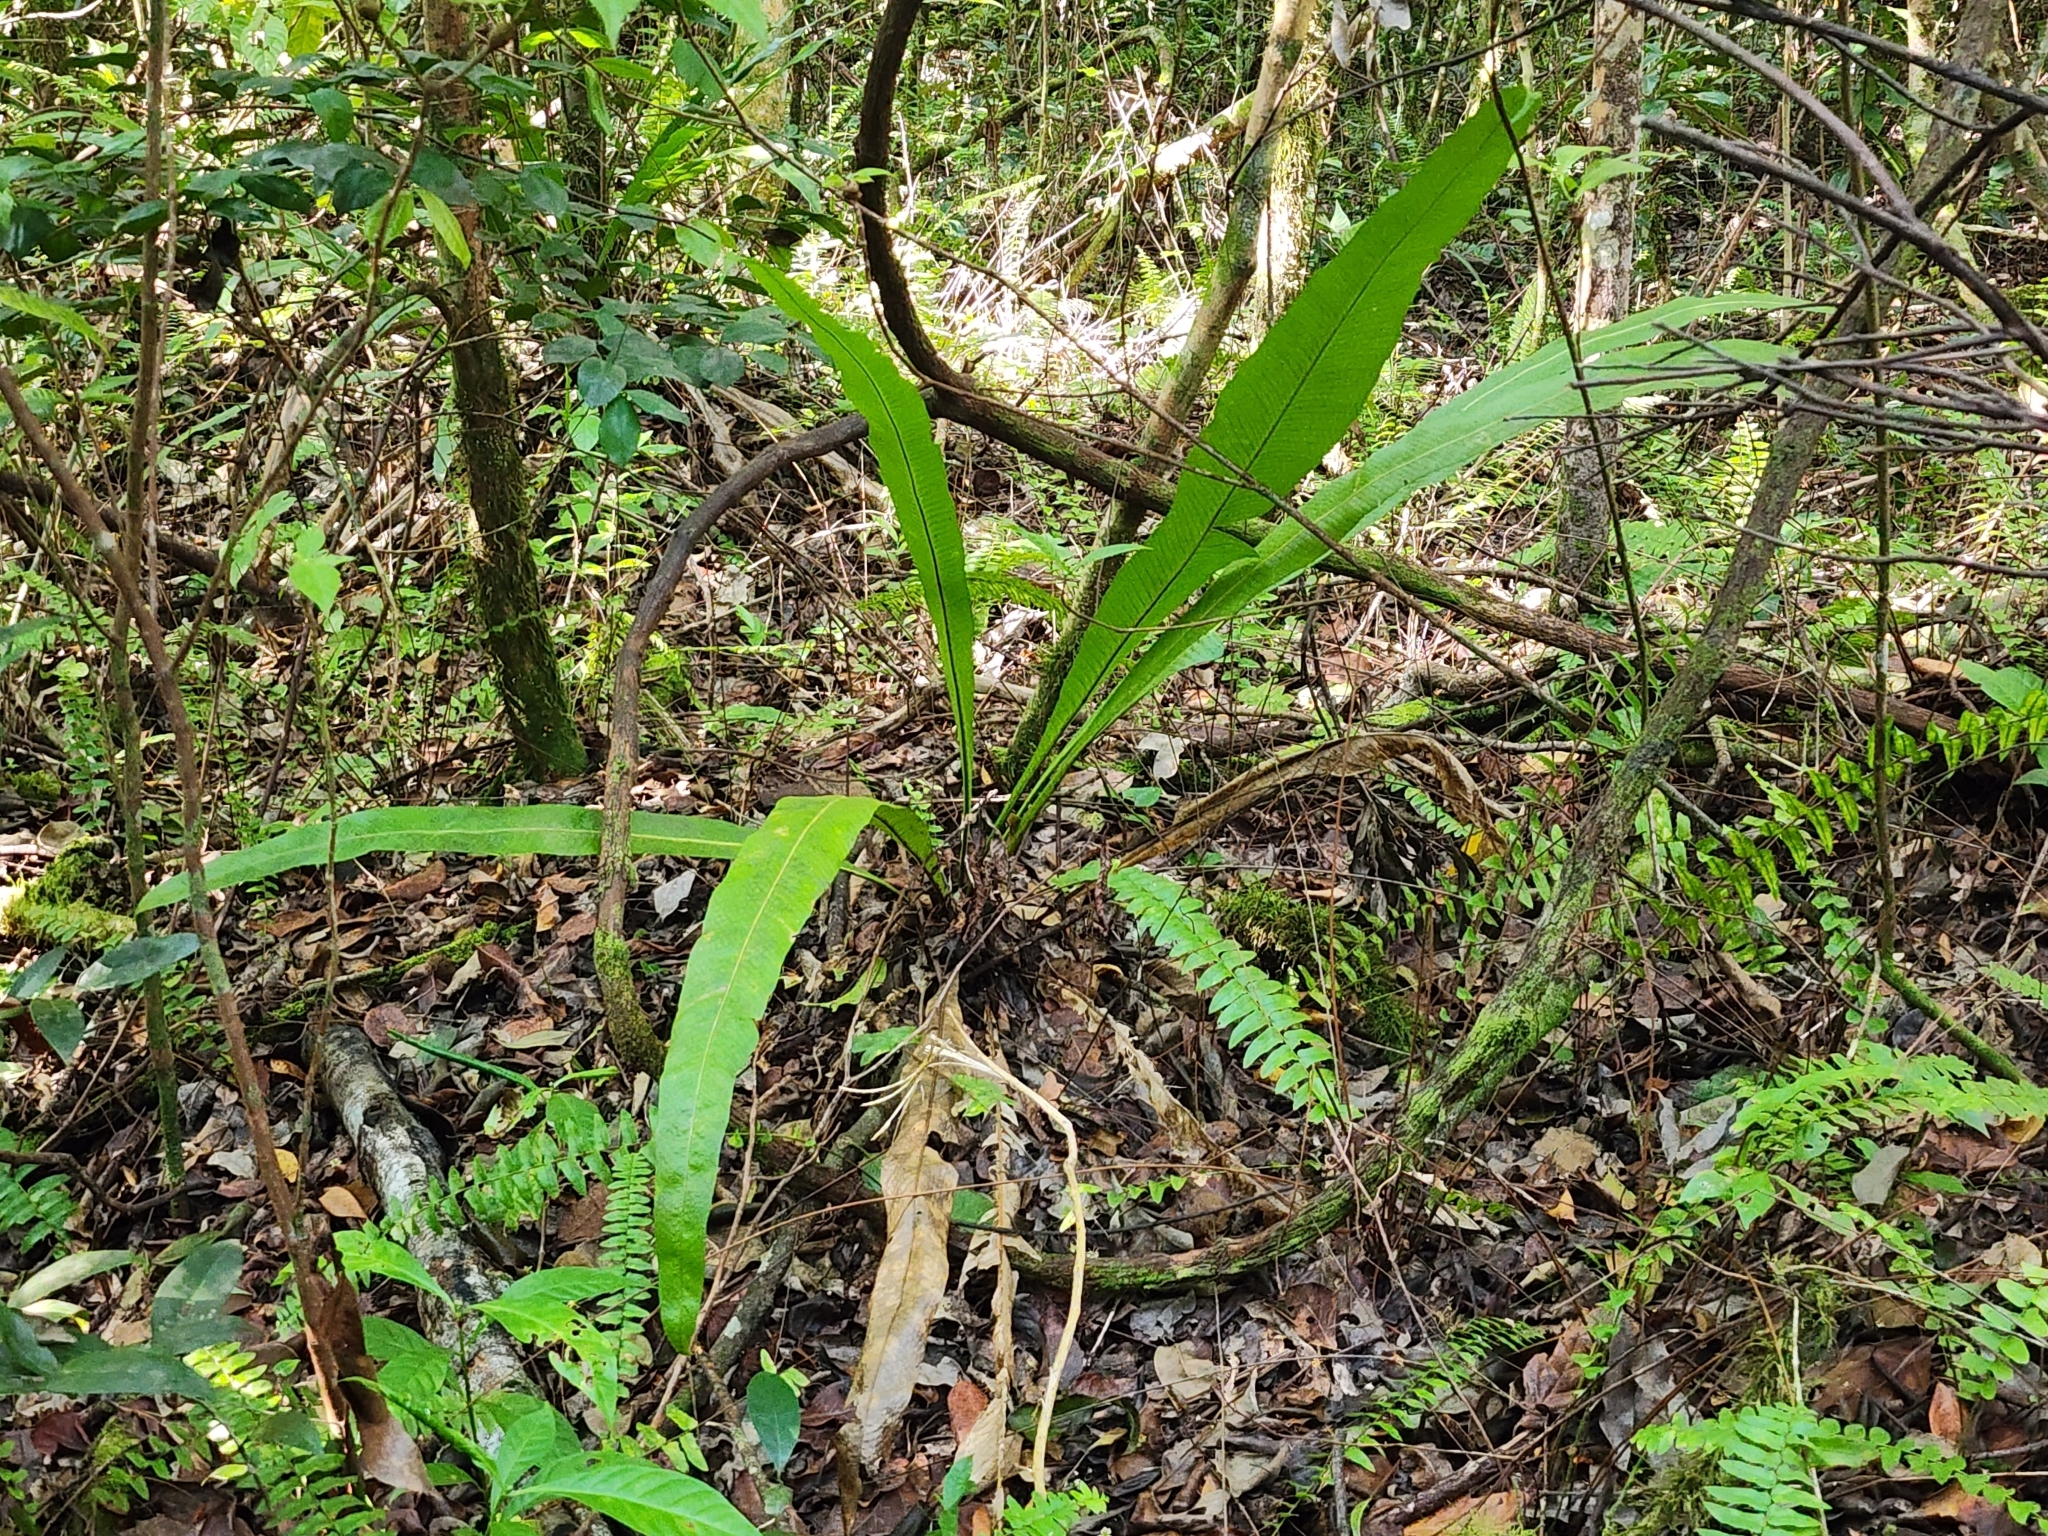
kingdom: Plantae
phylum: Tracheophyta
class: Polypodiopsida
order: Polypodiales
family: Polypodiaceae
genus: Campyloneurum
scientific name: Campyloneurum phyllitidis
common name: Cow-tongue fern
